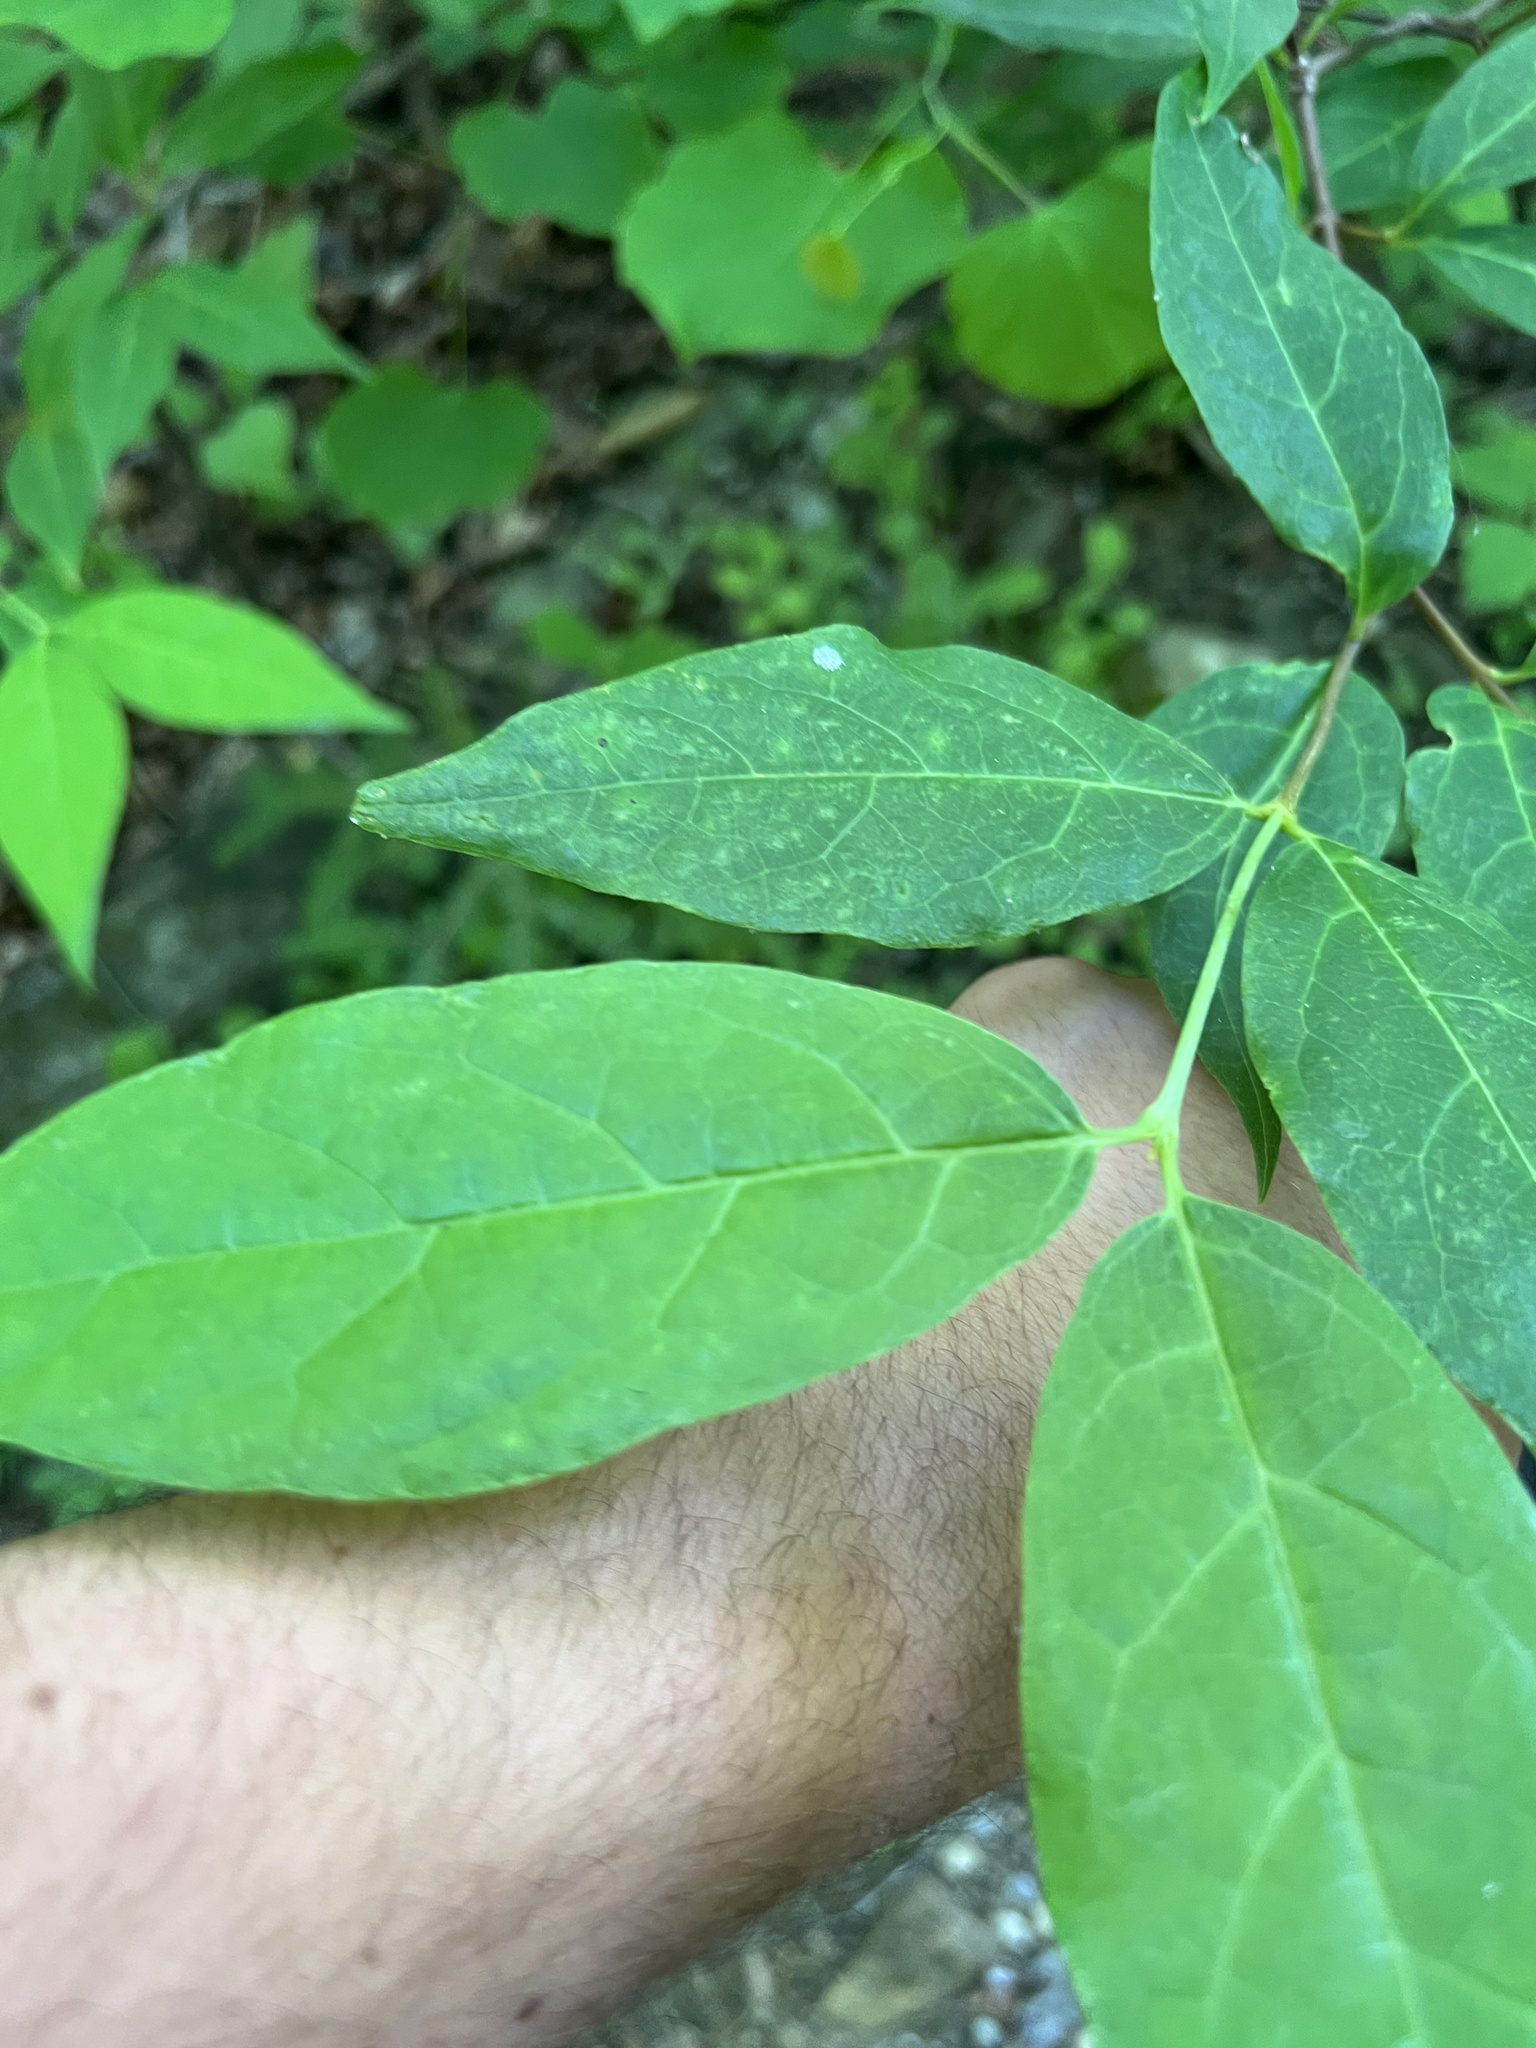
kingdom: Plantae
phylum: Tracheophyta
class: Magnoliopsida
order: Laurales
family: Calycanthaceae
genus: Calycanthus
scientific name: Calycanthus floridus
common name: Carolina-allspice
